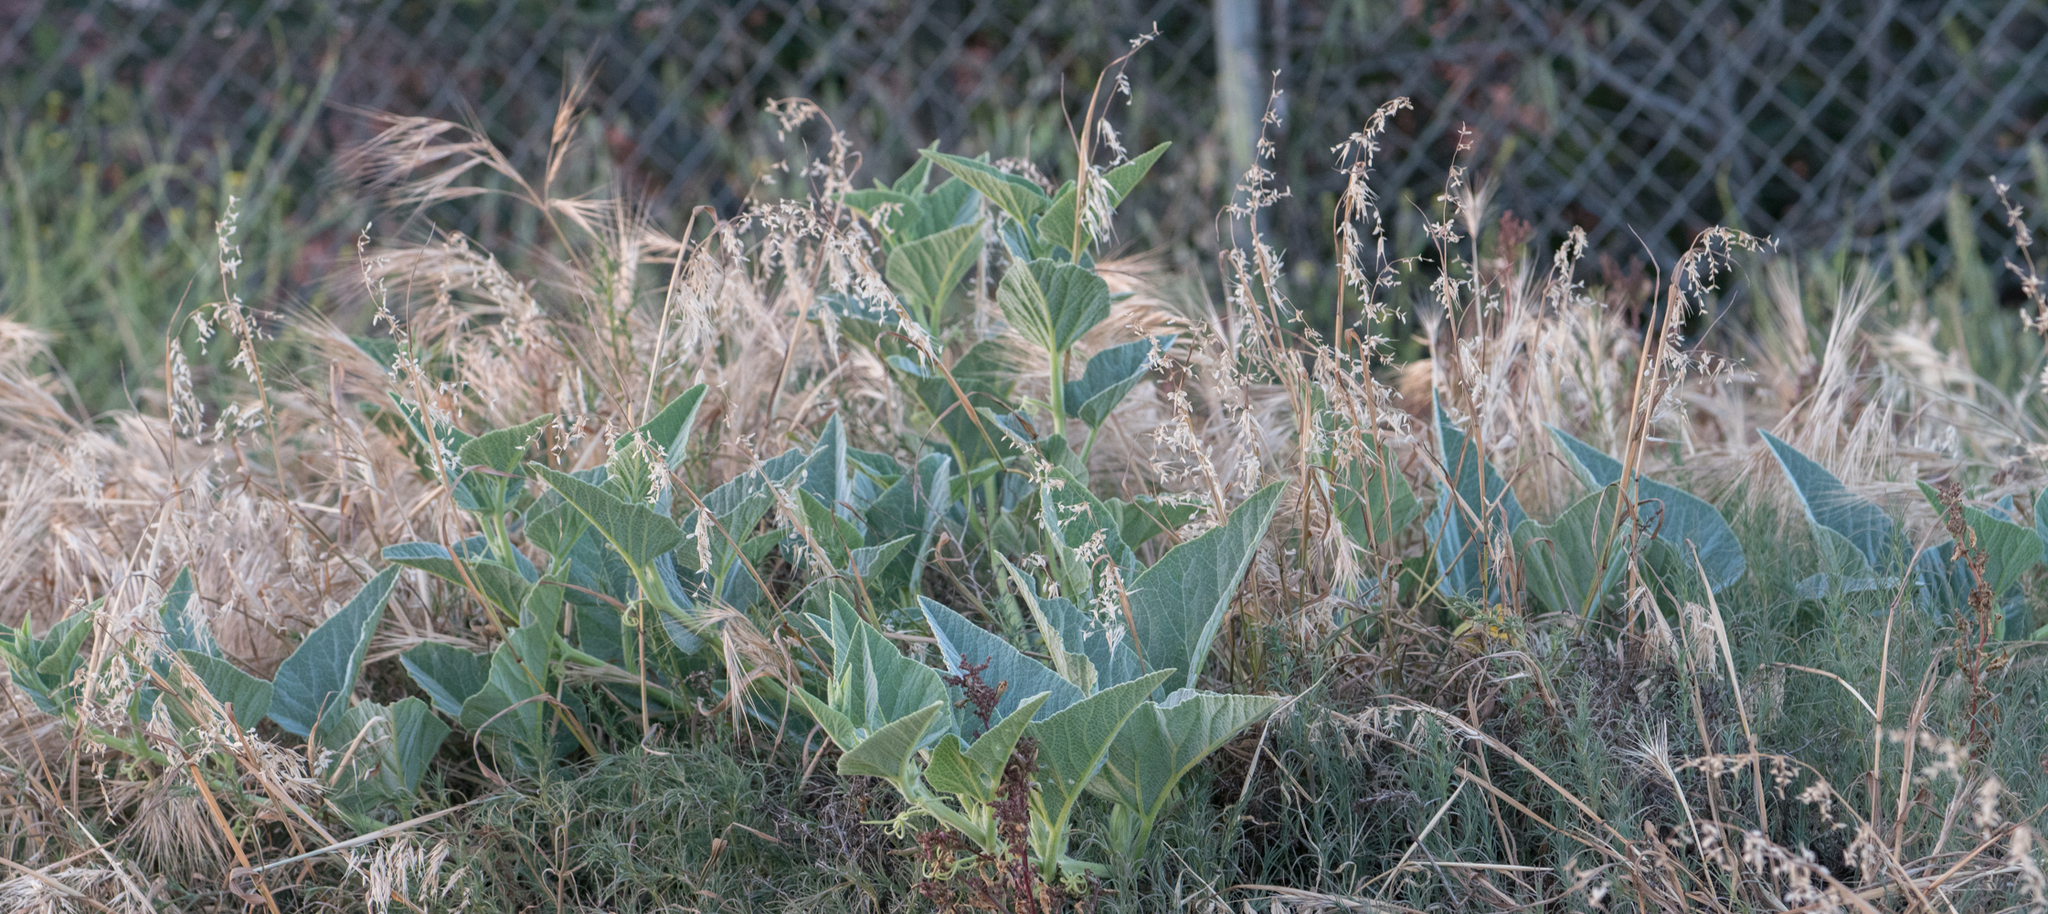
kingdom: Plantae
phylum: Tracheophyta
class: Magnoliopsida
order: Cucurbitales
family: Cucurbitaceae
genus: Cucurbita
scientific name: Cucurbita foetidissima
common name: Buffalo gourd
